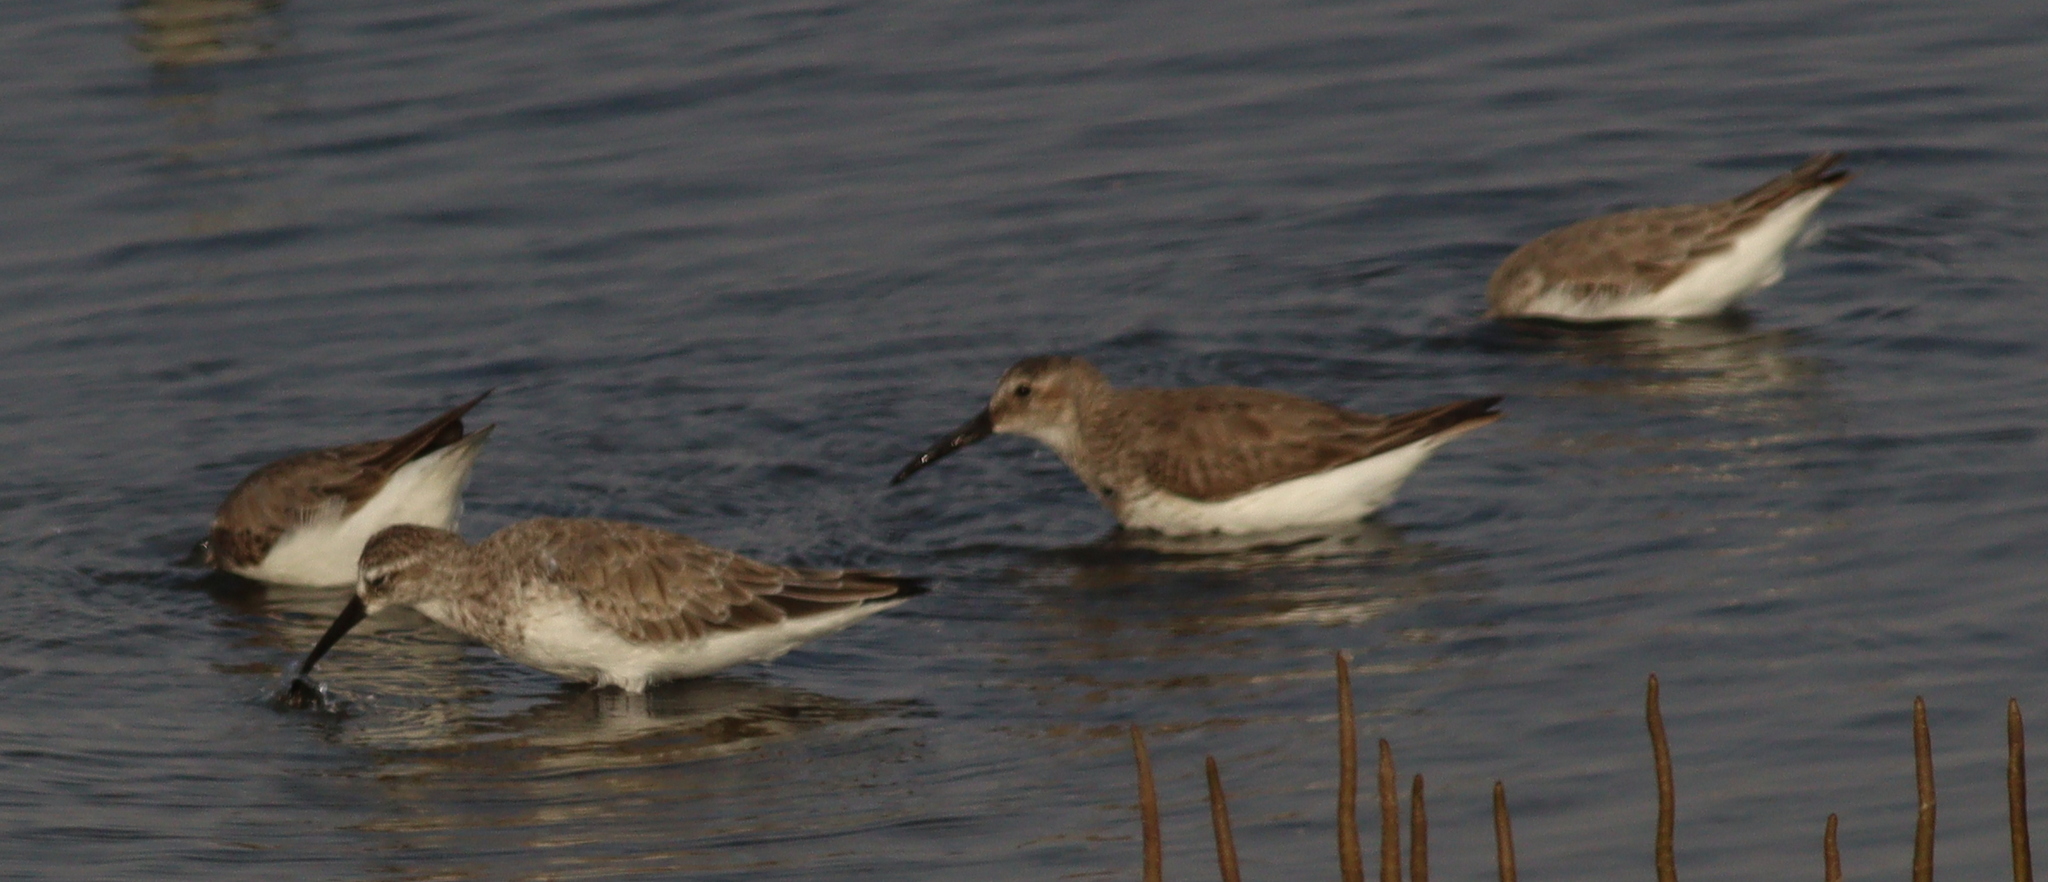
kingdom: Animalia
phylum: Chordata
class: Aves
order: Charadriiformes
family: Scolopacidae
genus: Calidris
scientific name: Calidris alpina
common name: Dunlin
